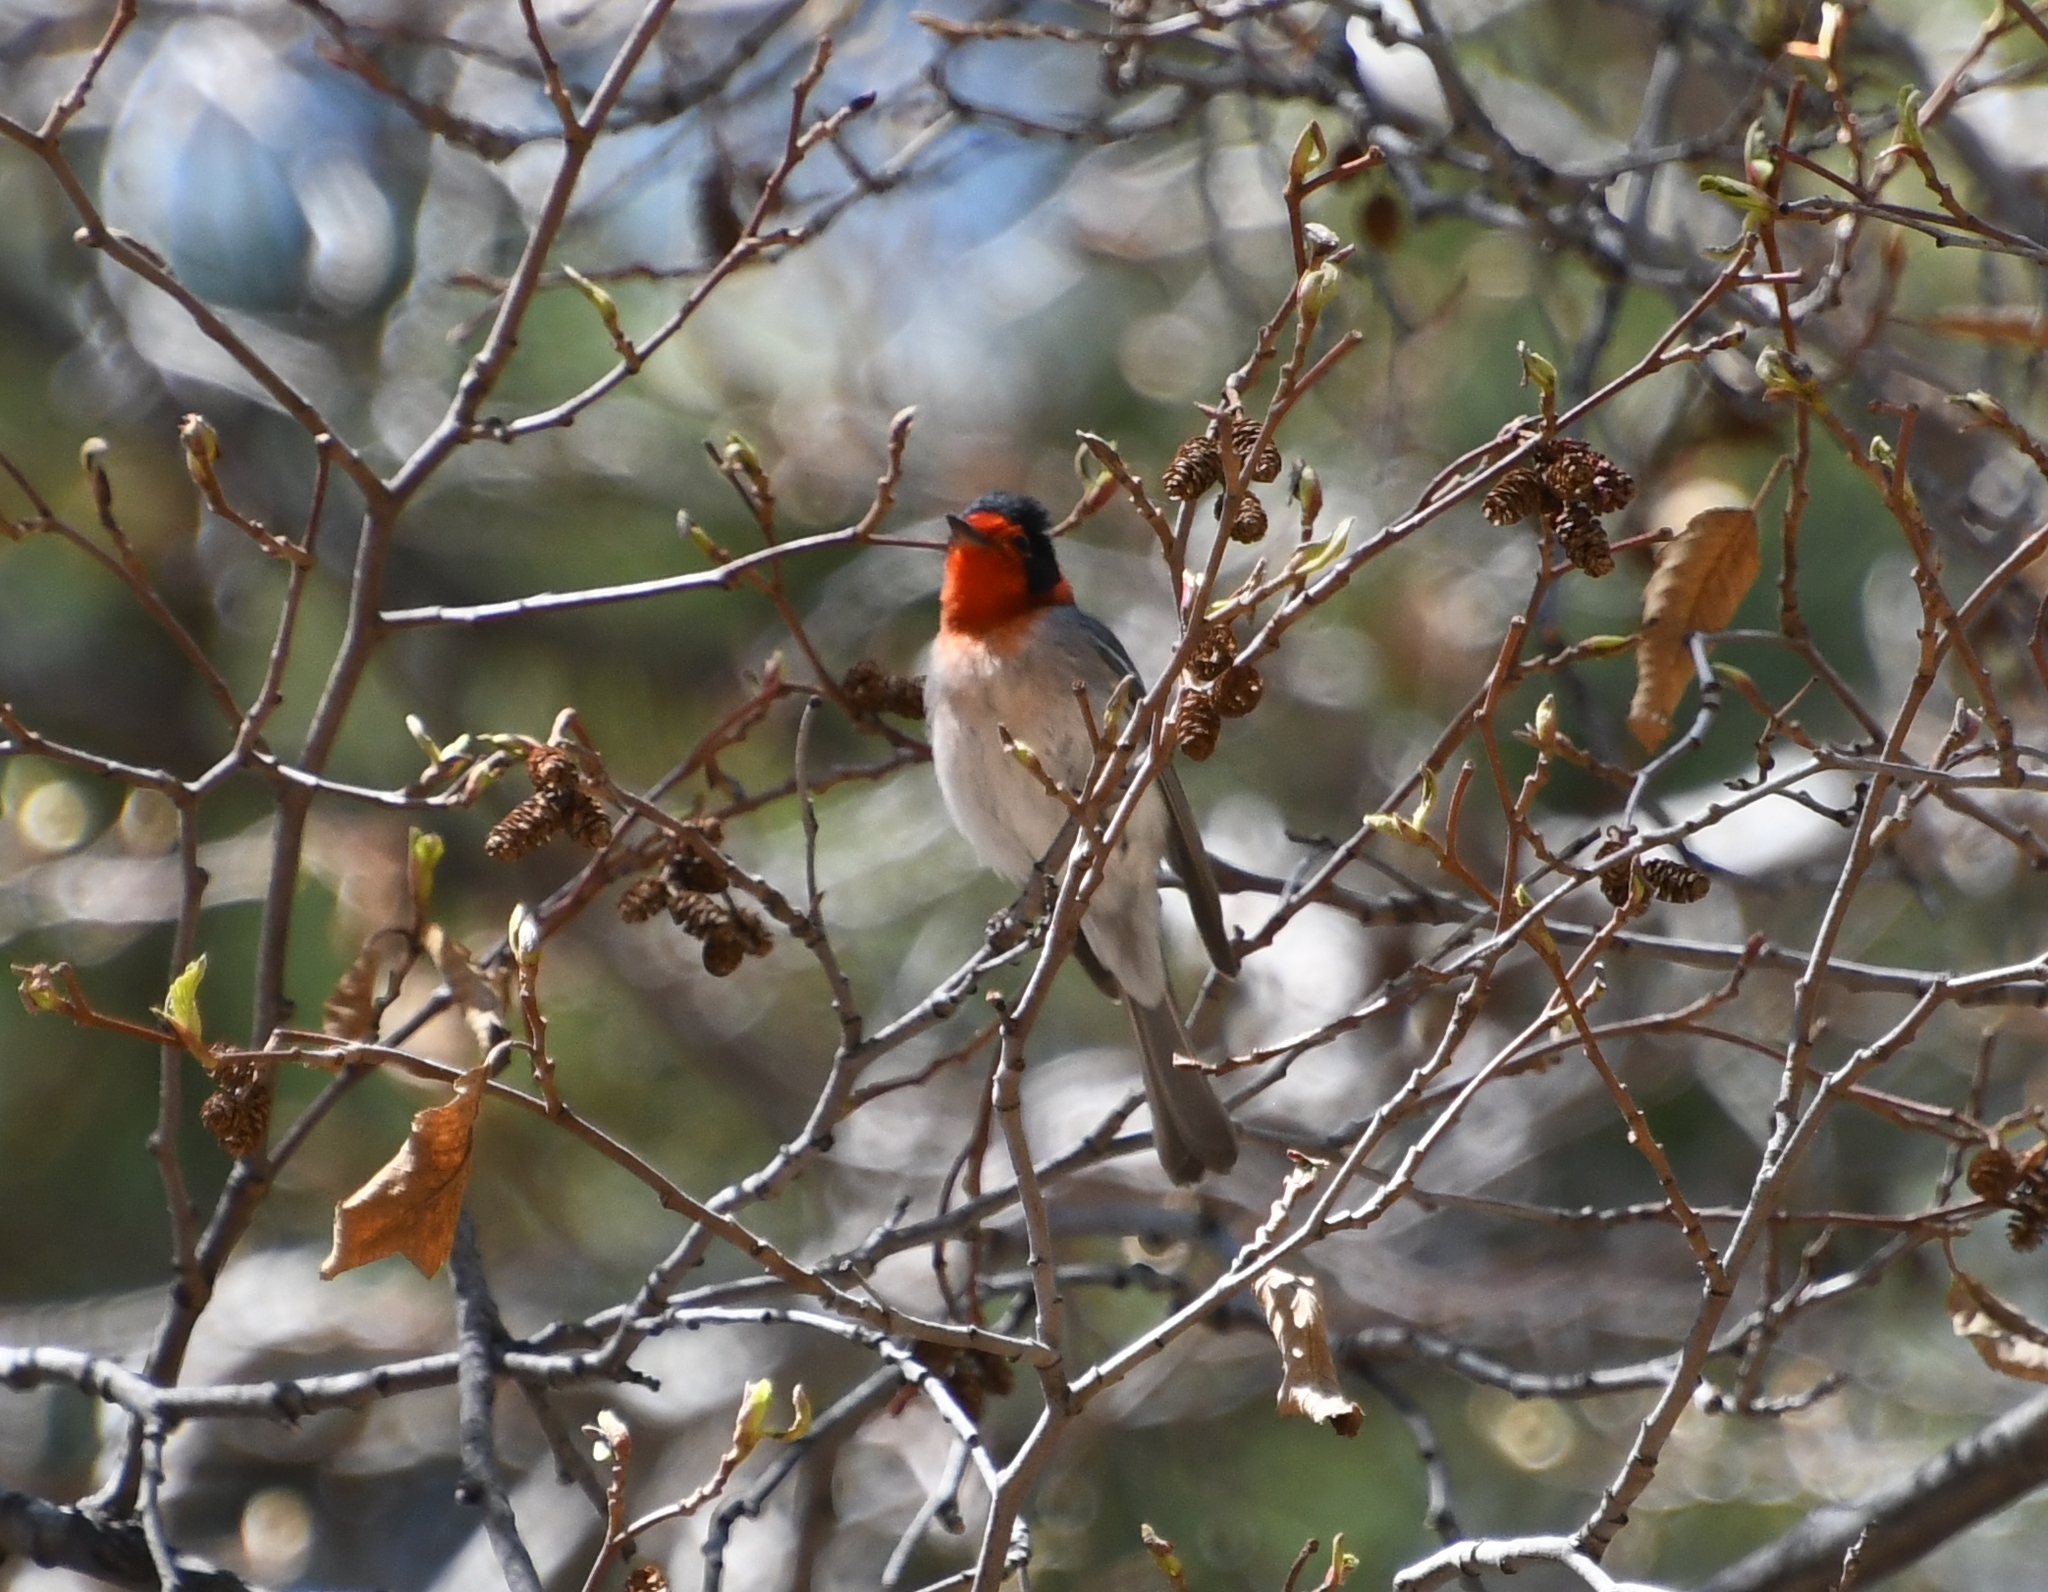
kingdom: Animalia
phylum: Chordata
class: Aves
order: Passeriformes
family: Parulidae
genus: Cardellina
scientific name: Cardellina rubrifrons
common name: Red-faced warbler
